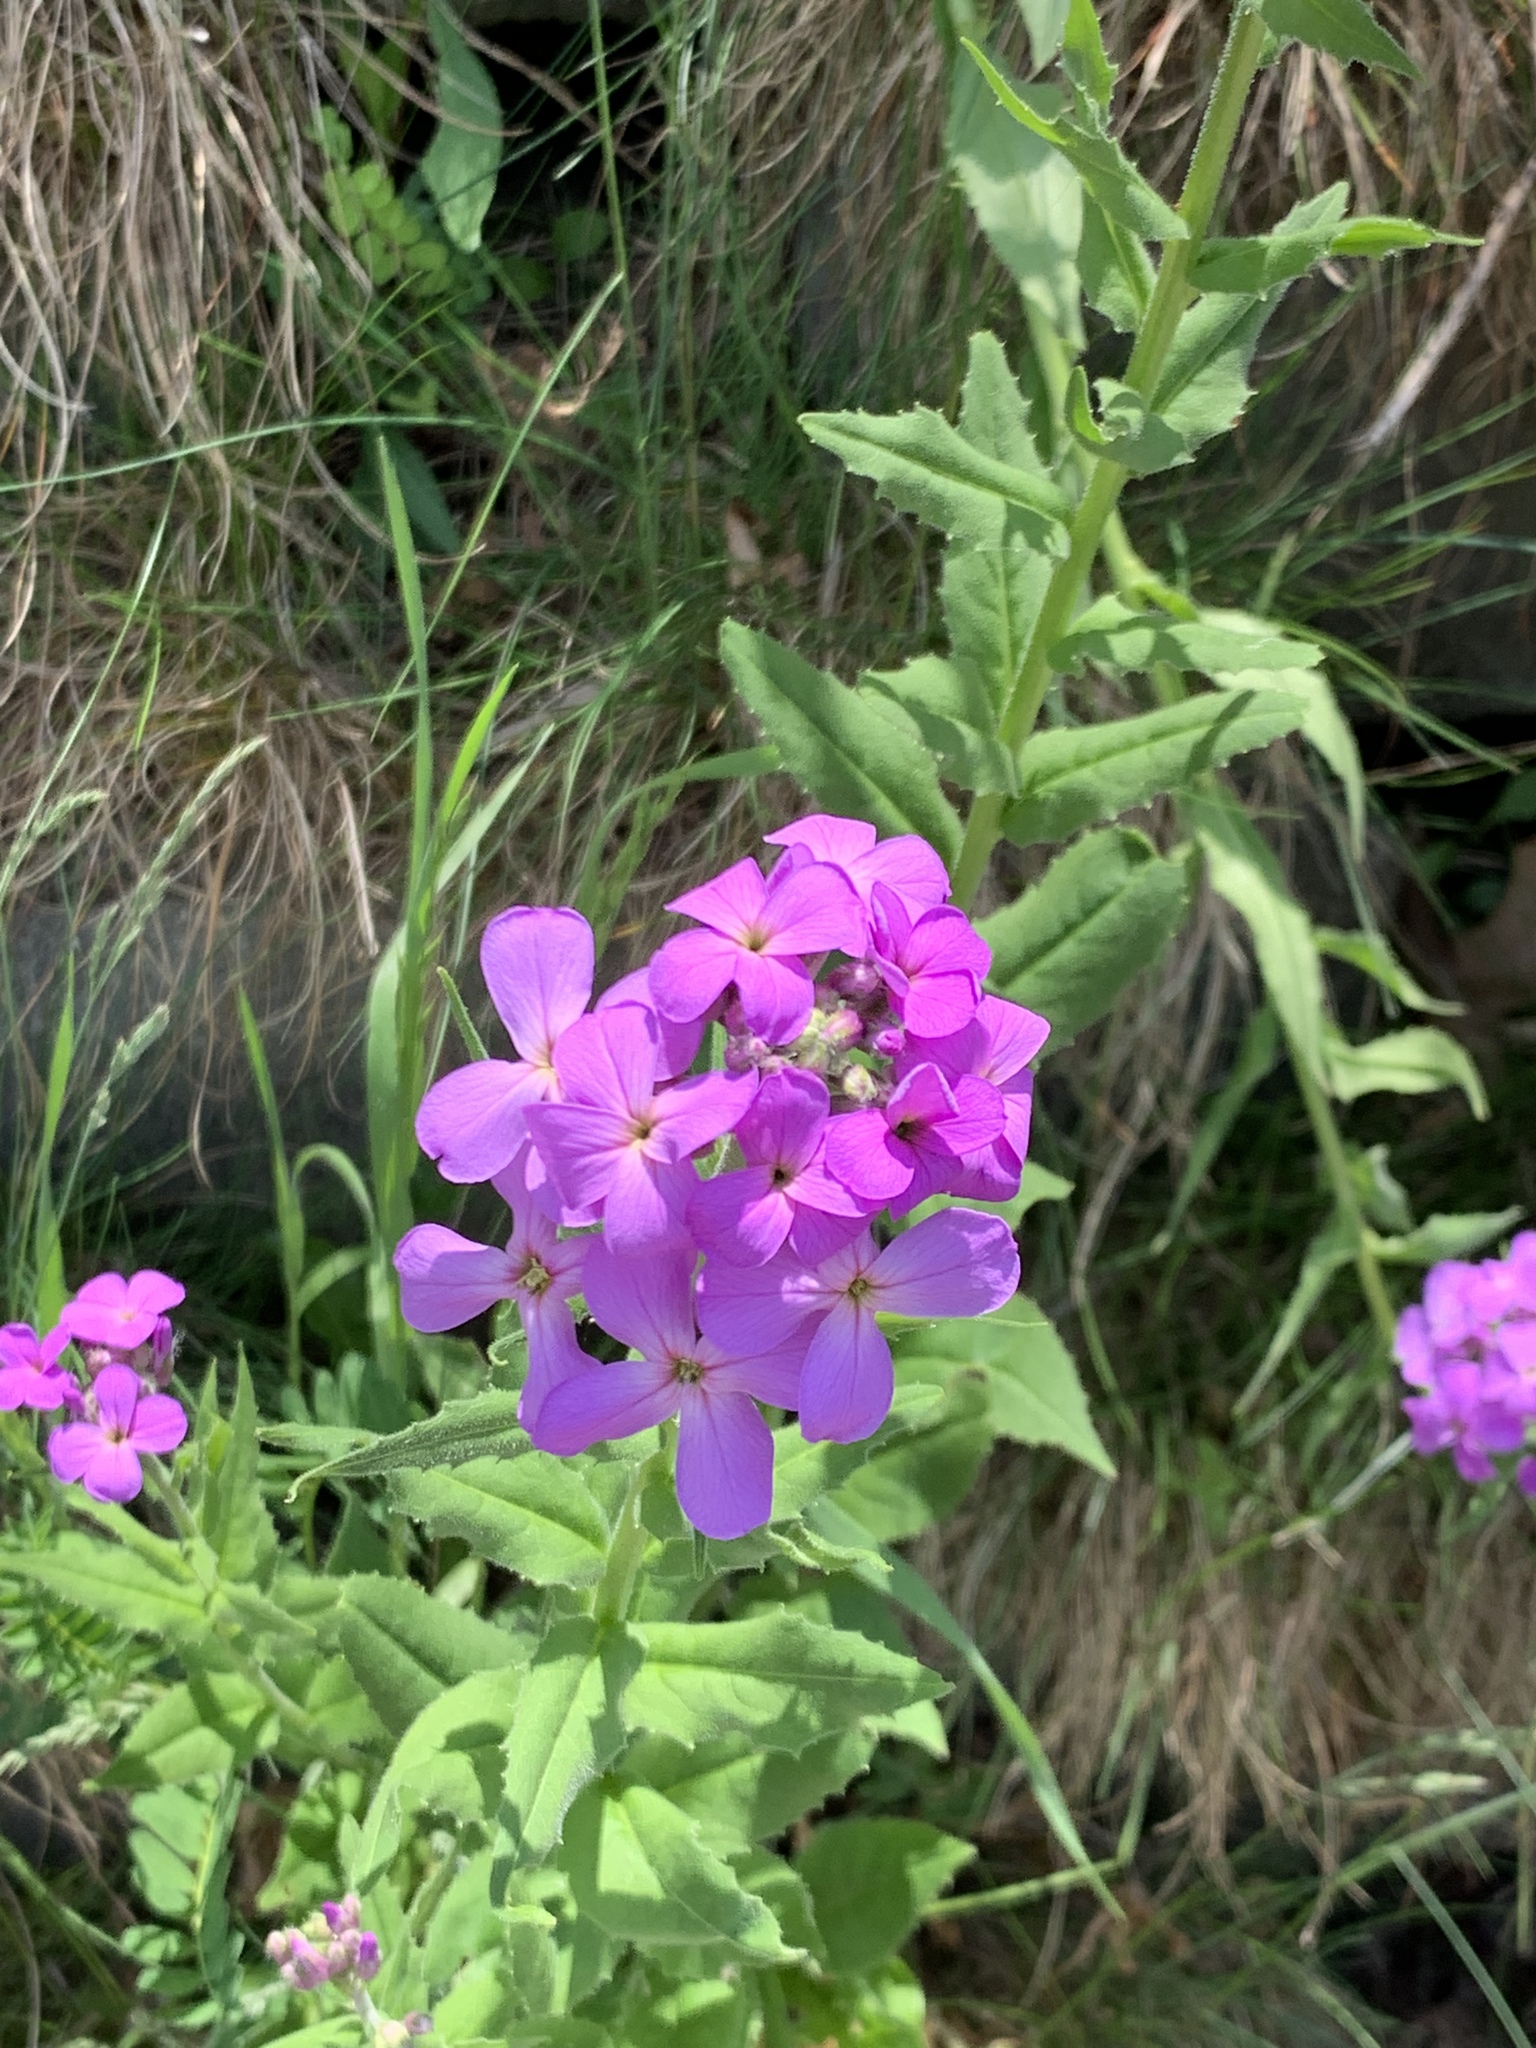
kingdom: Plantae
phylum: Tracheophyta
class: Magnoliopsida
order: Brassicales
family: Brassicaceae
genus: Hesperis
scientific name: Hesperis matronalis
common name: Dame's-violet
